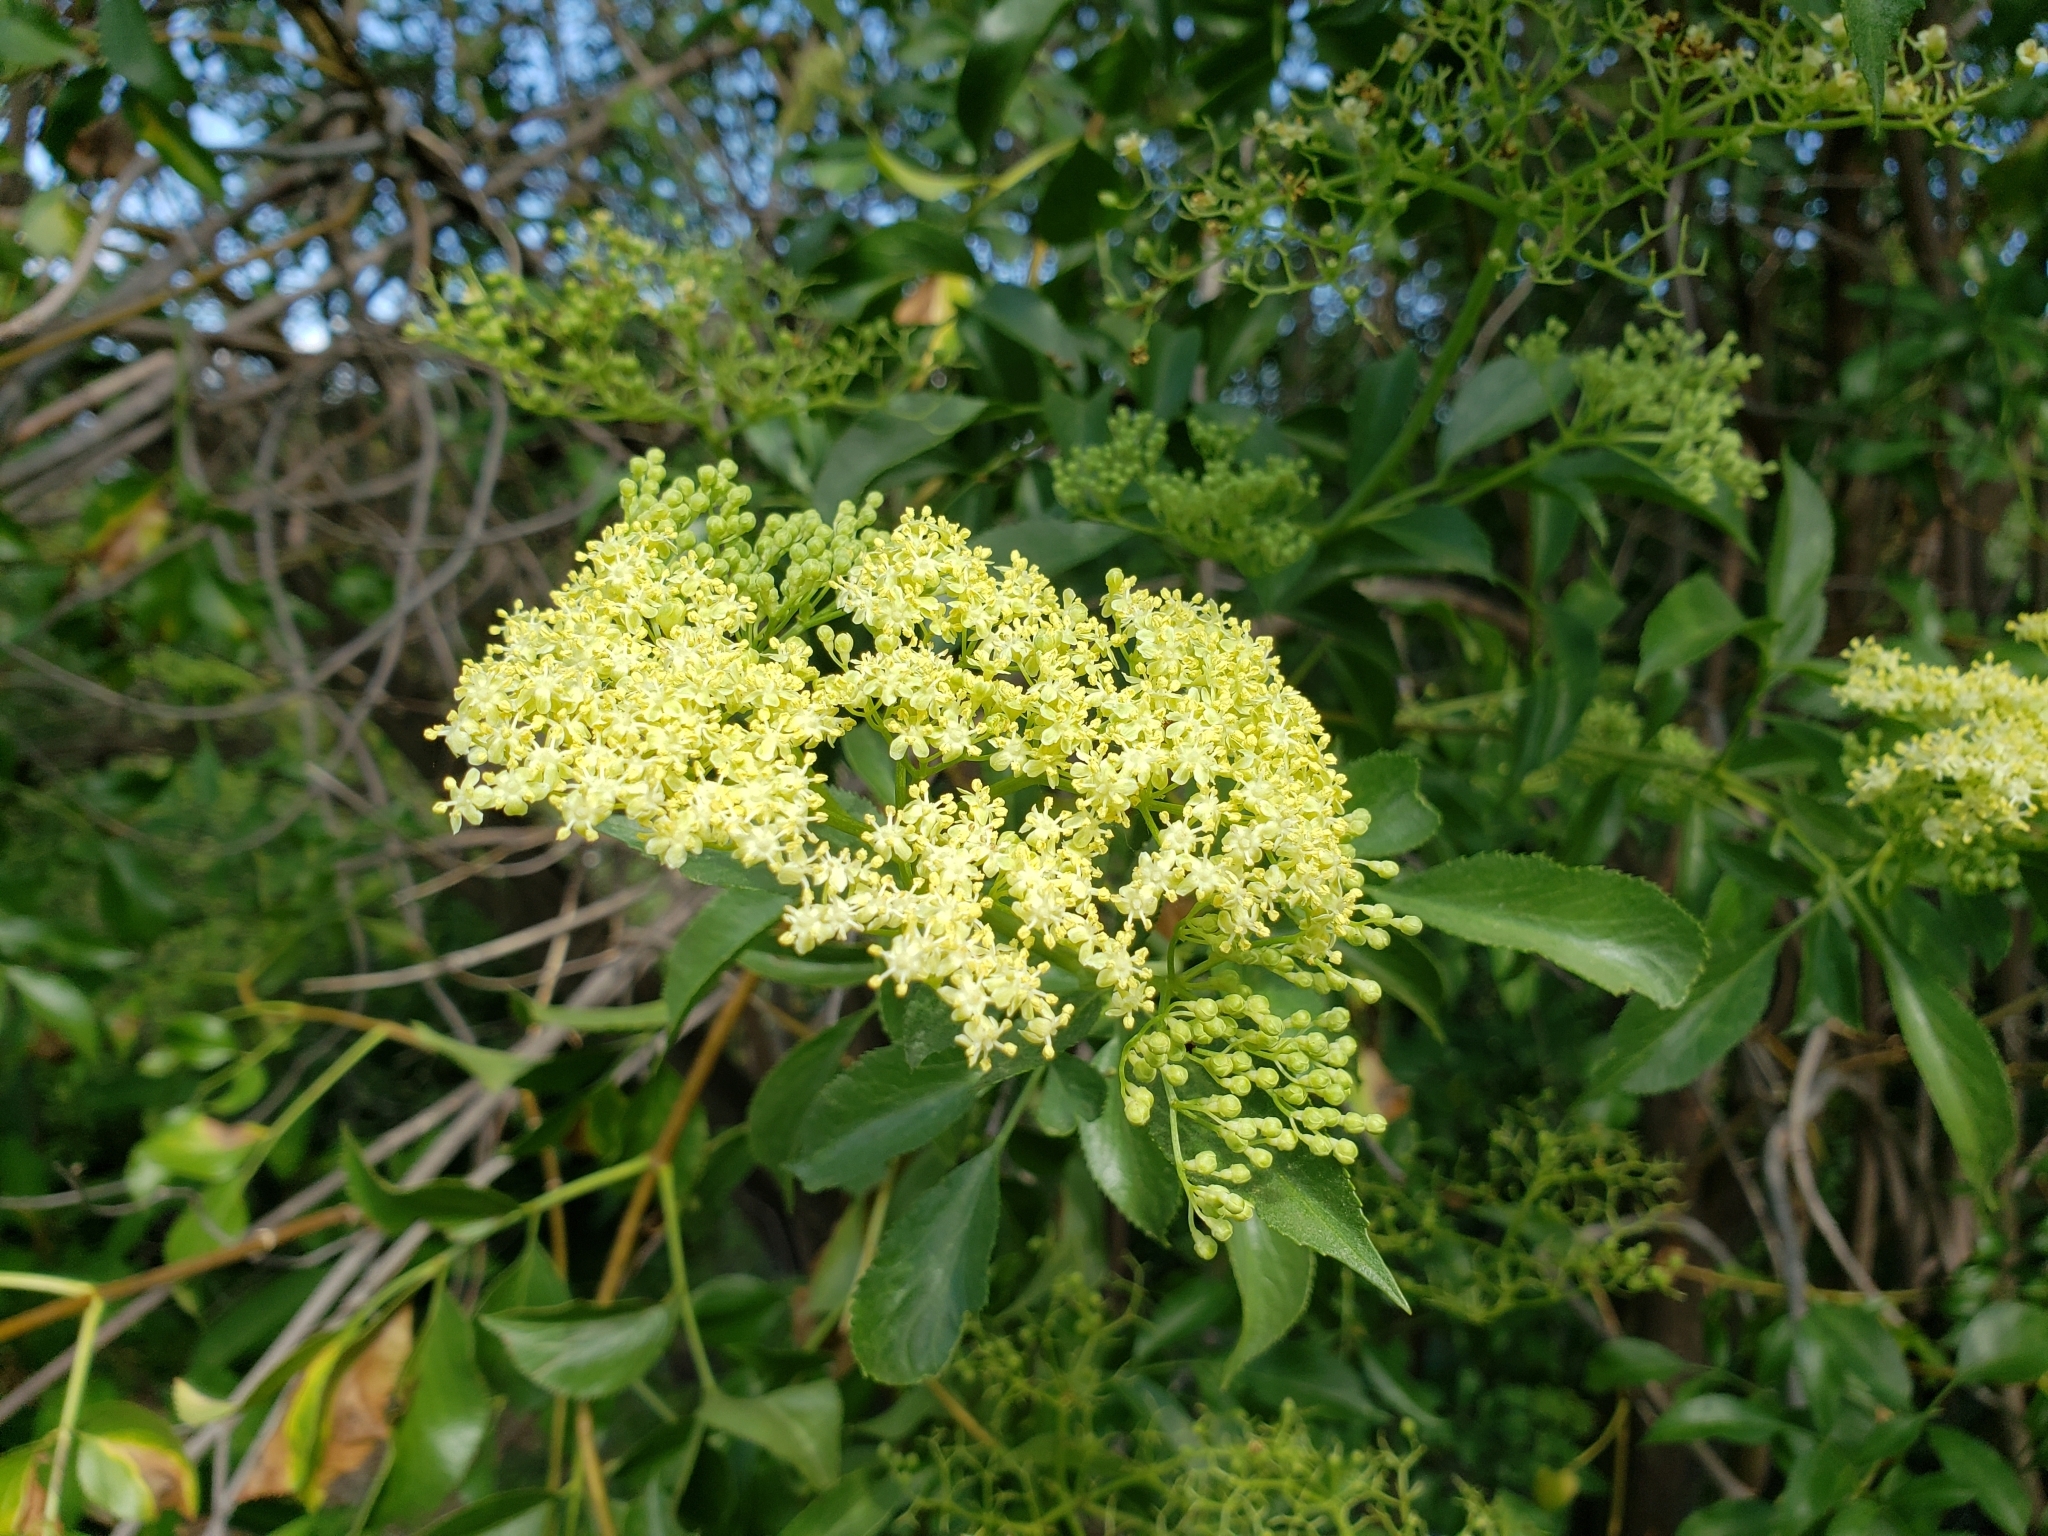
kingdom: Plantae
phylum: Tracheophyta
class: Magnoliopsida
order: Dipsacales
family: Viburnaceae
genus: Sambucus
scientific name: Sambucus cerulea
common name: Blue elder
